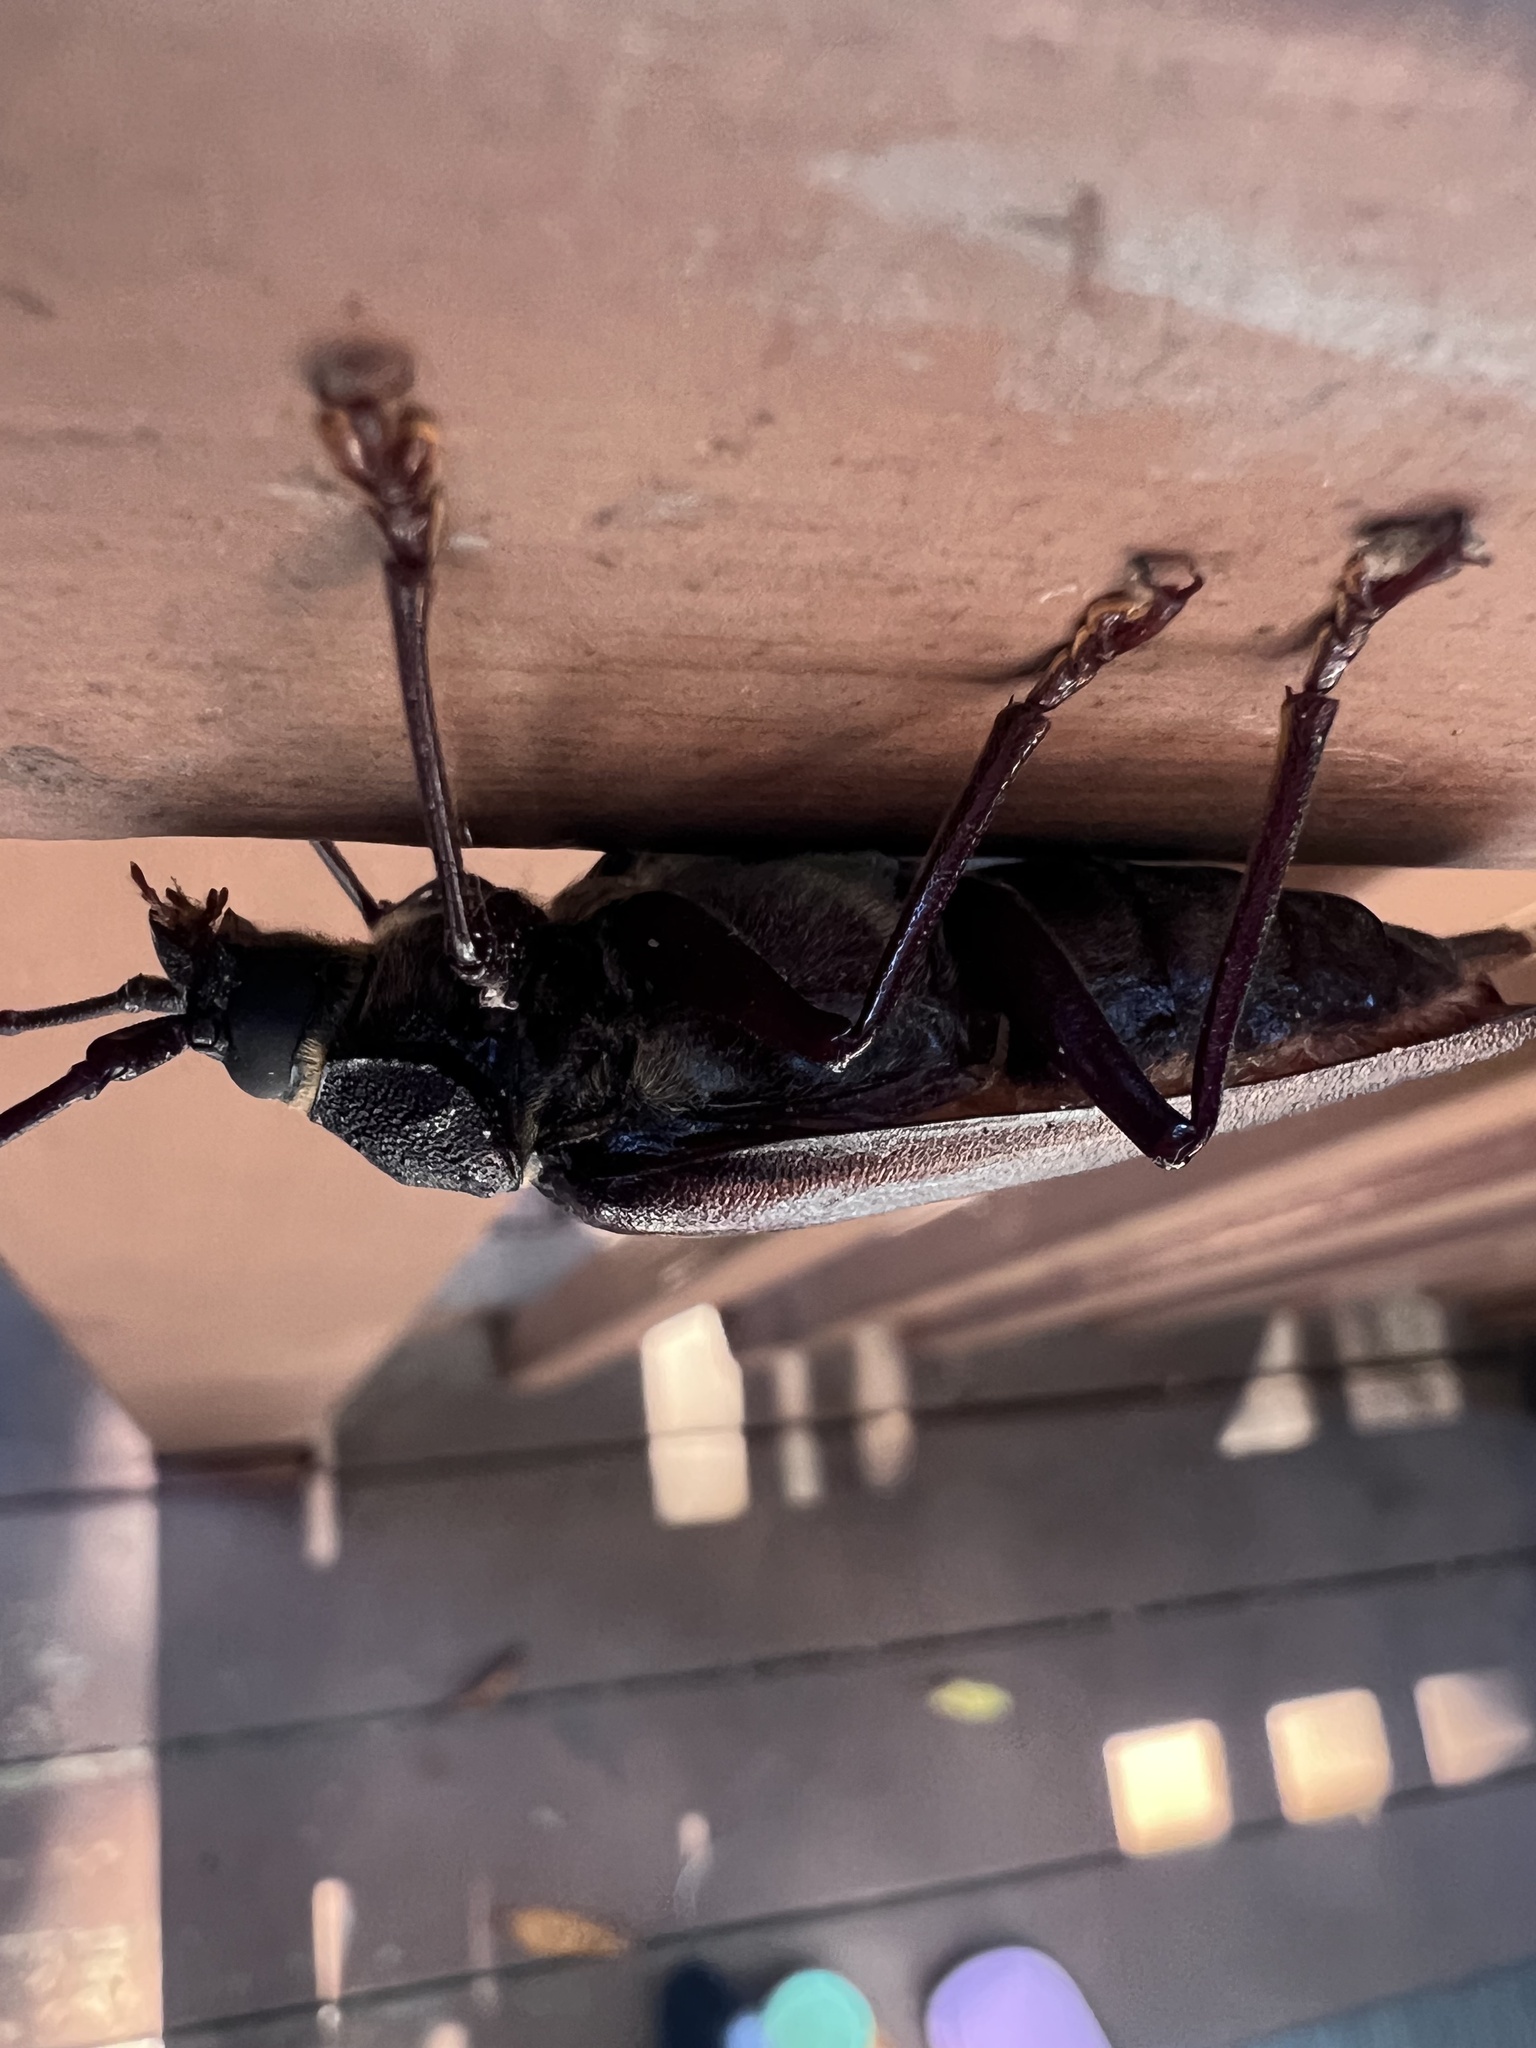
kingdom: Animalia
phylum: Arthropoda
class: Insecta
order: Coleoptera
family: Cerambycidae
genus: Trichocnemis
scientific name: Trichocnemis spiculatus
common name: Long-horned beetle
